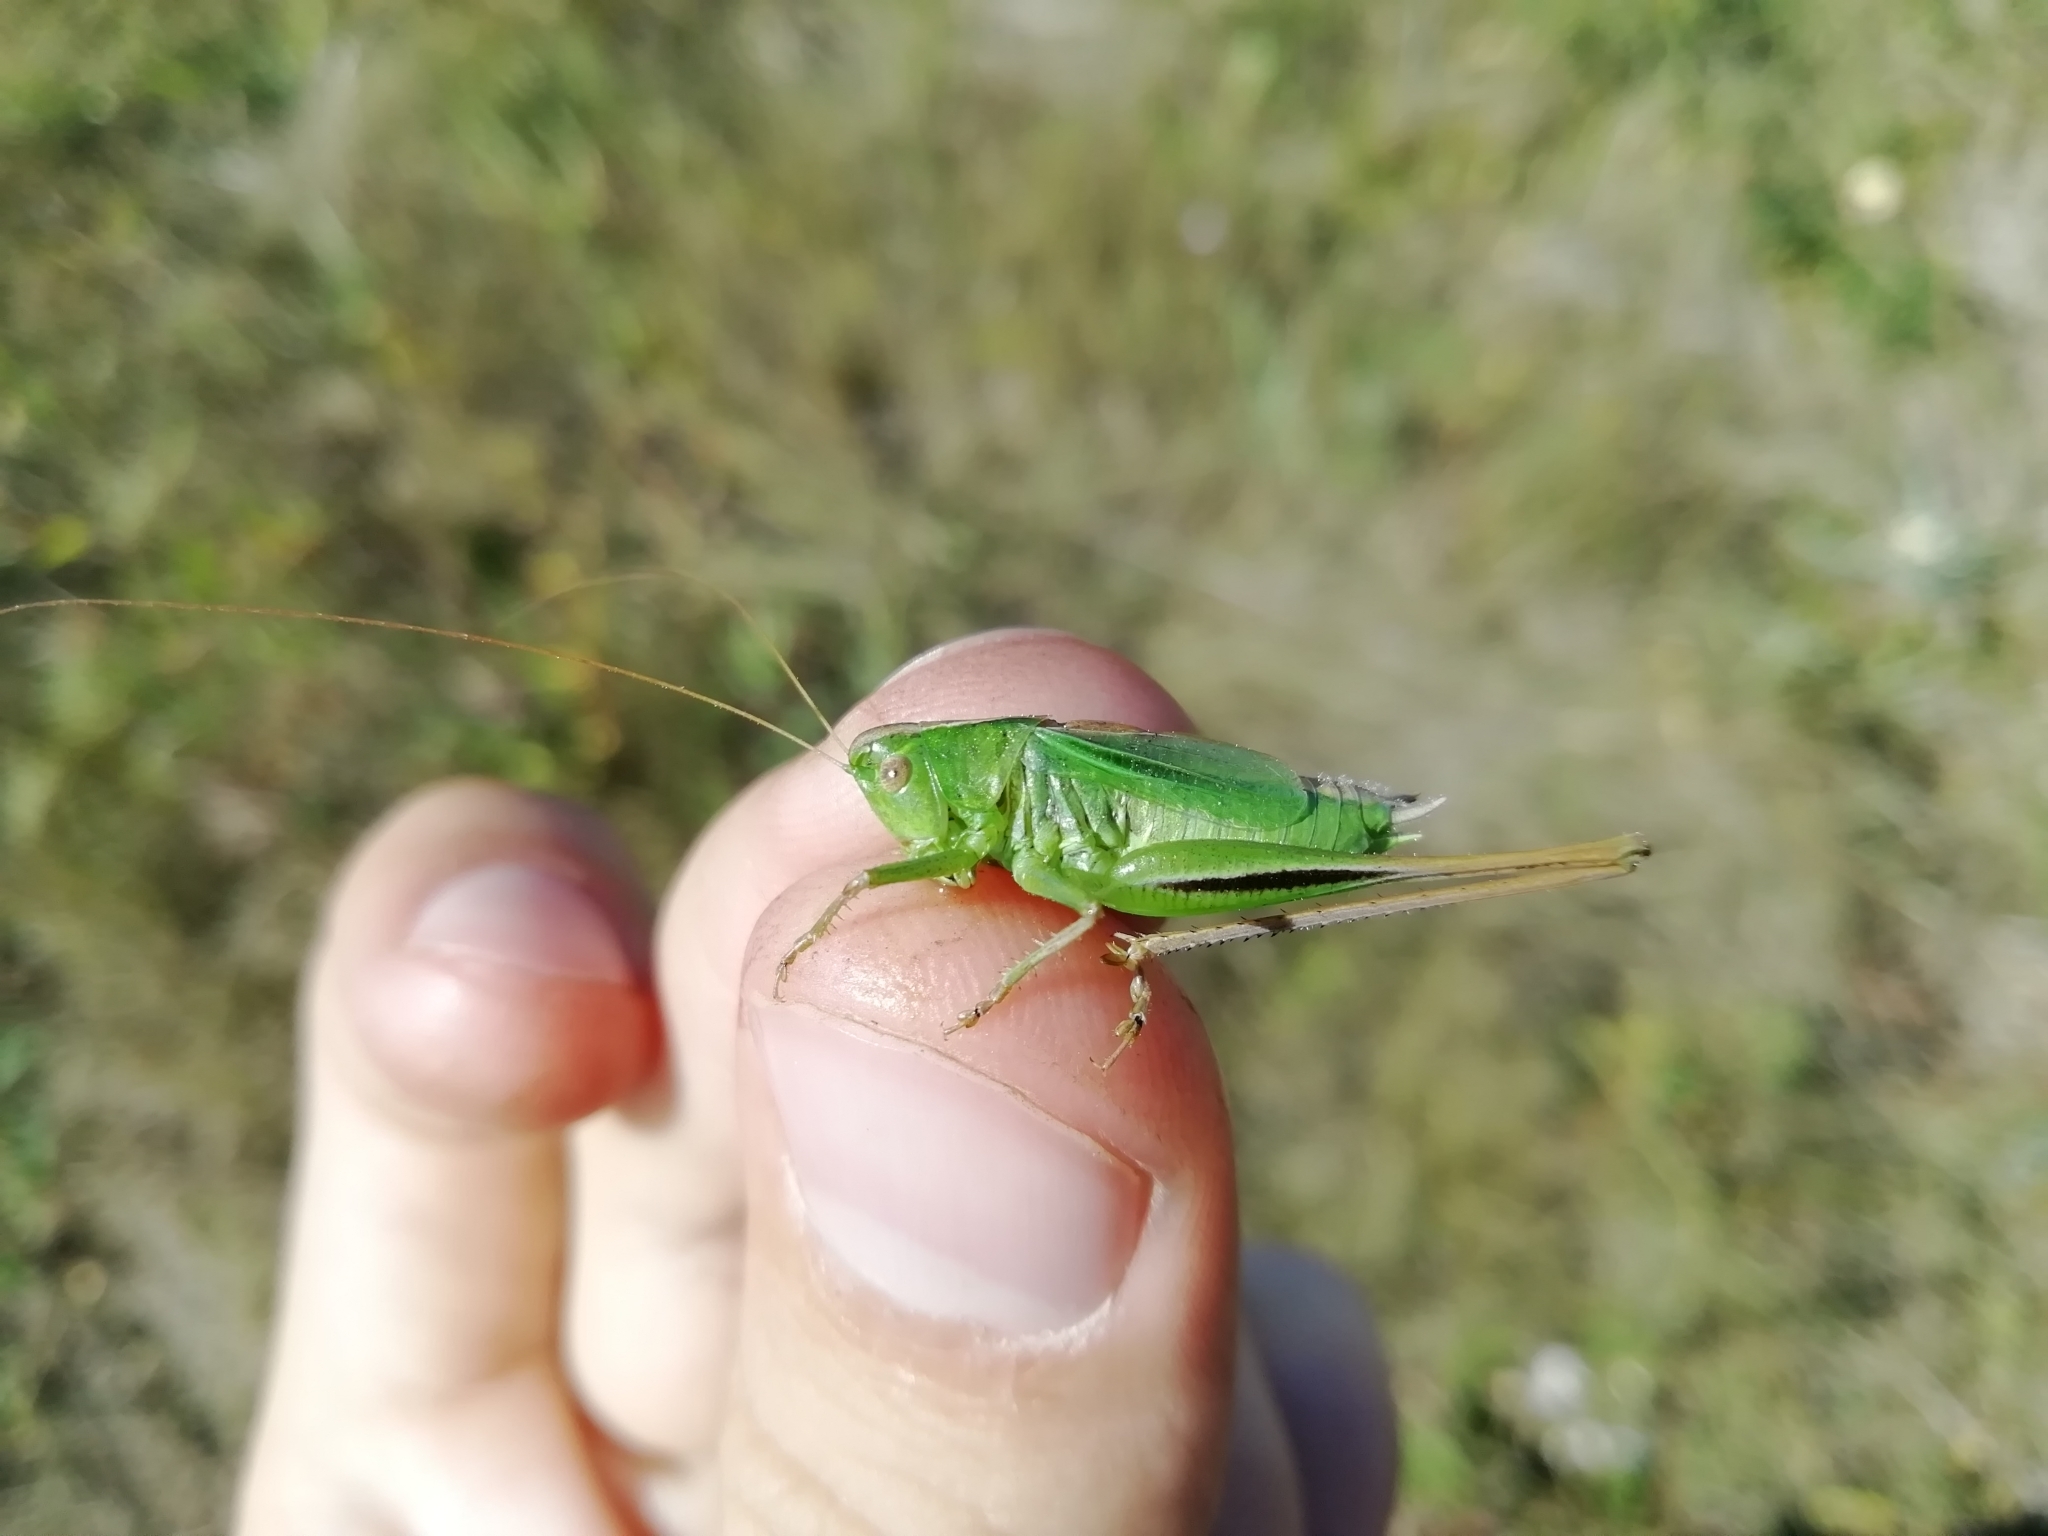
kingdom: Animalia
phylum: Arthropoda
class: Insecta
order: Orthoptera
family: Tettigoniidae
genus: Bicolorana
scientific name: Bicolorana bicolor
